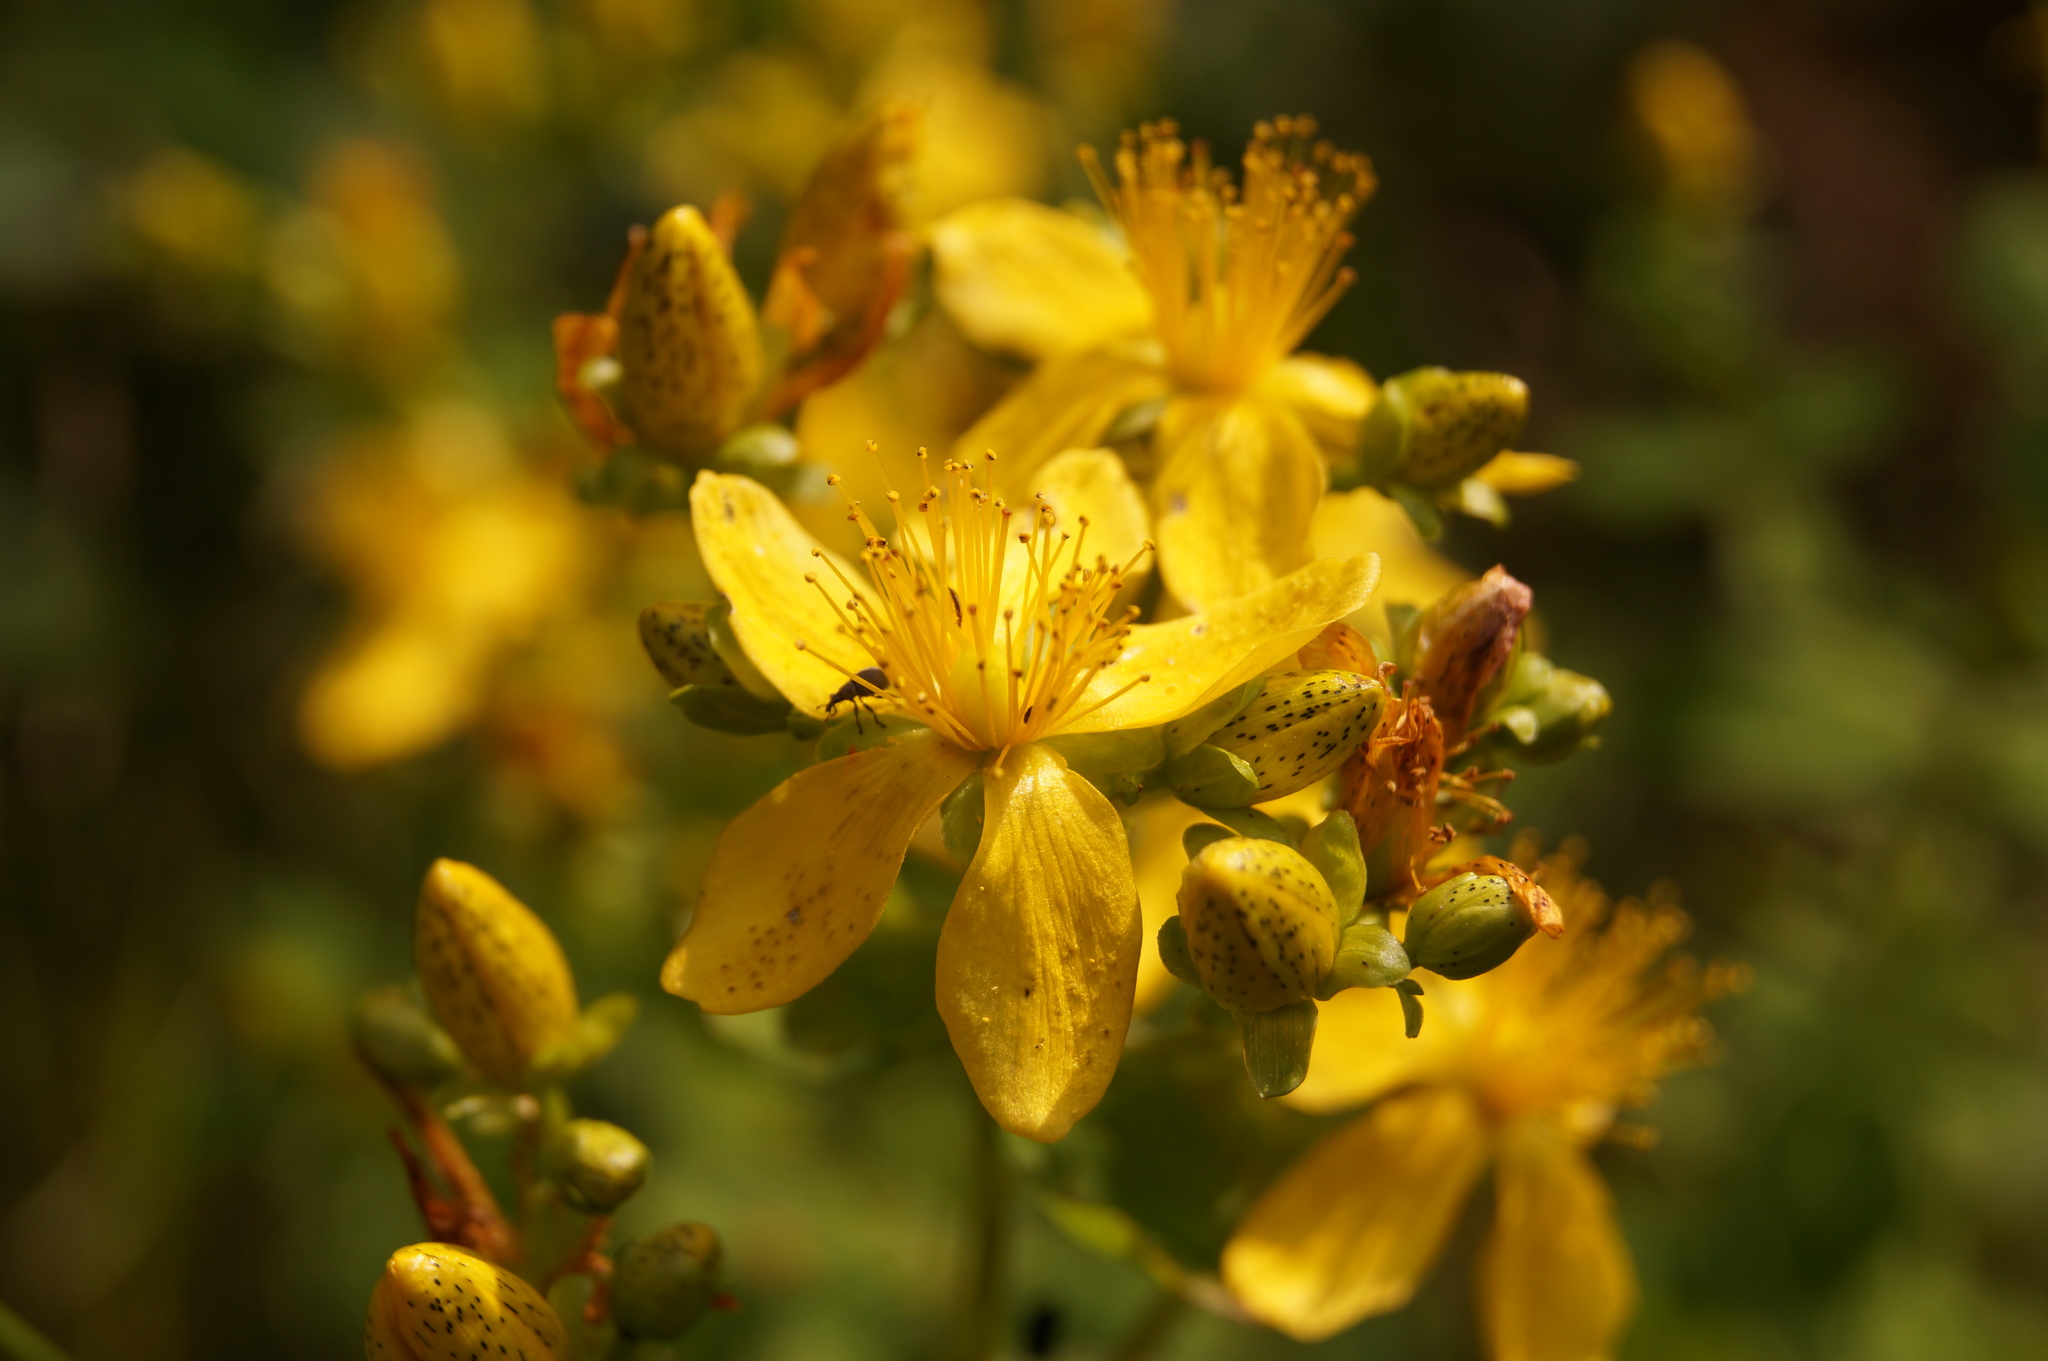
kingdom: Plantae
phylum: Tracheophyta
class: Magnoliopsida
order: Malpighiales
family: Hypericaceae
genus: Hypericum
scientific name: Hypericum maculatum
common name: Imperforate st. john's-wort
